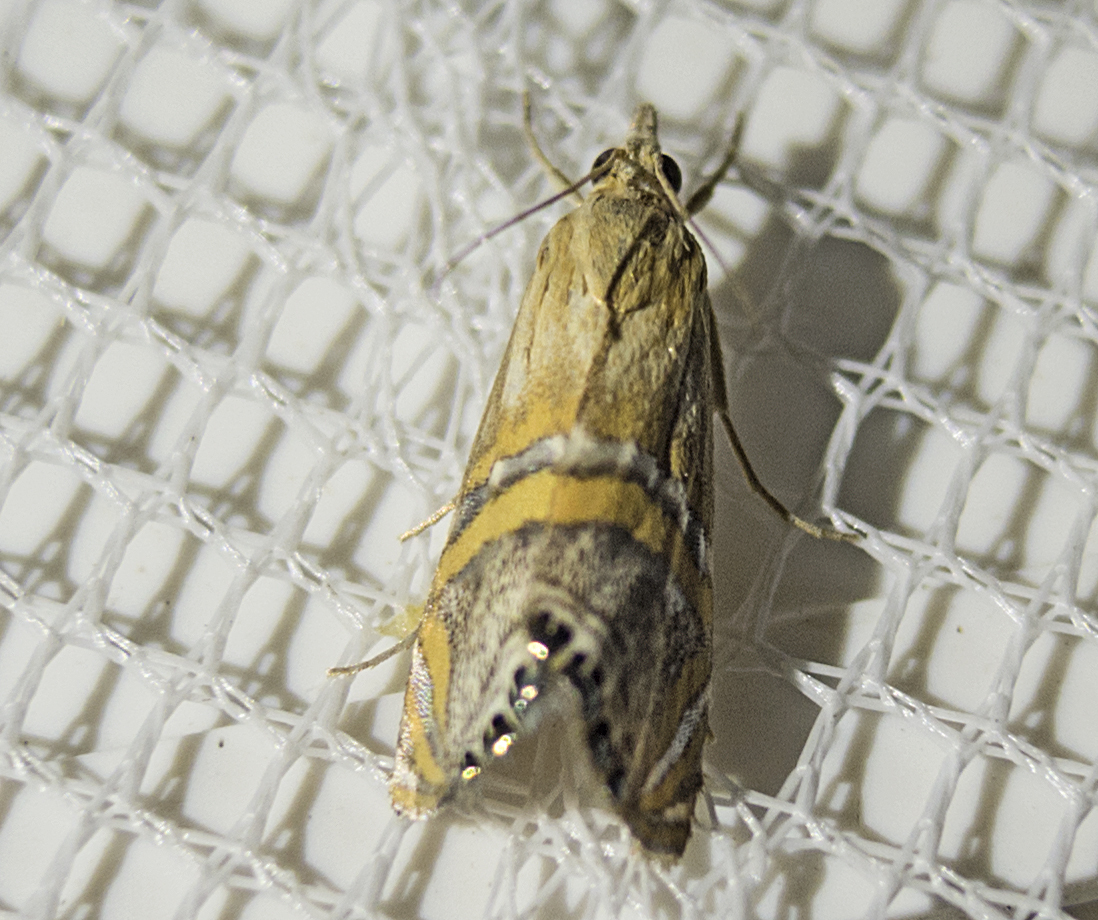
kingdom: Animalia
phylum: Arthropoda
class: Insecta
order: Lepidoptera
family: Crambidae
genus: Euchromius
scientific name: Euchromius bella
